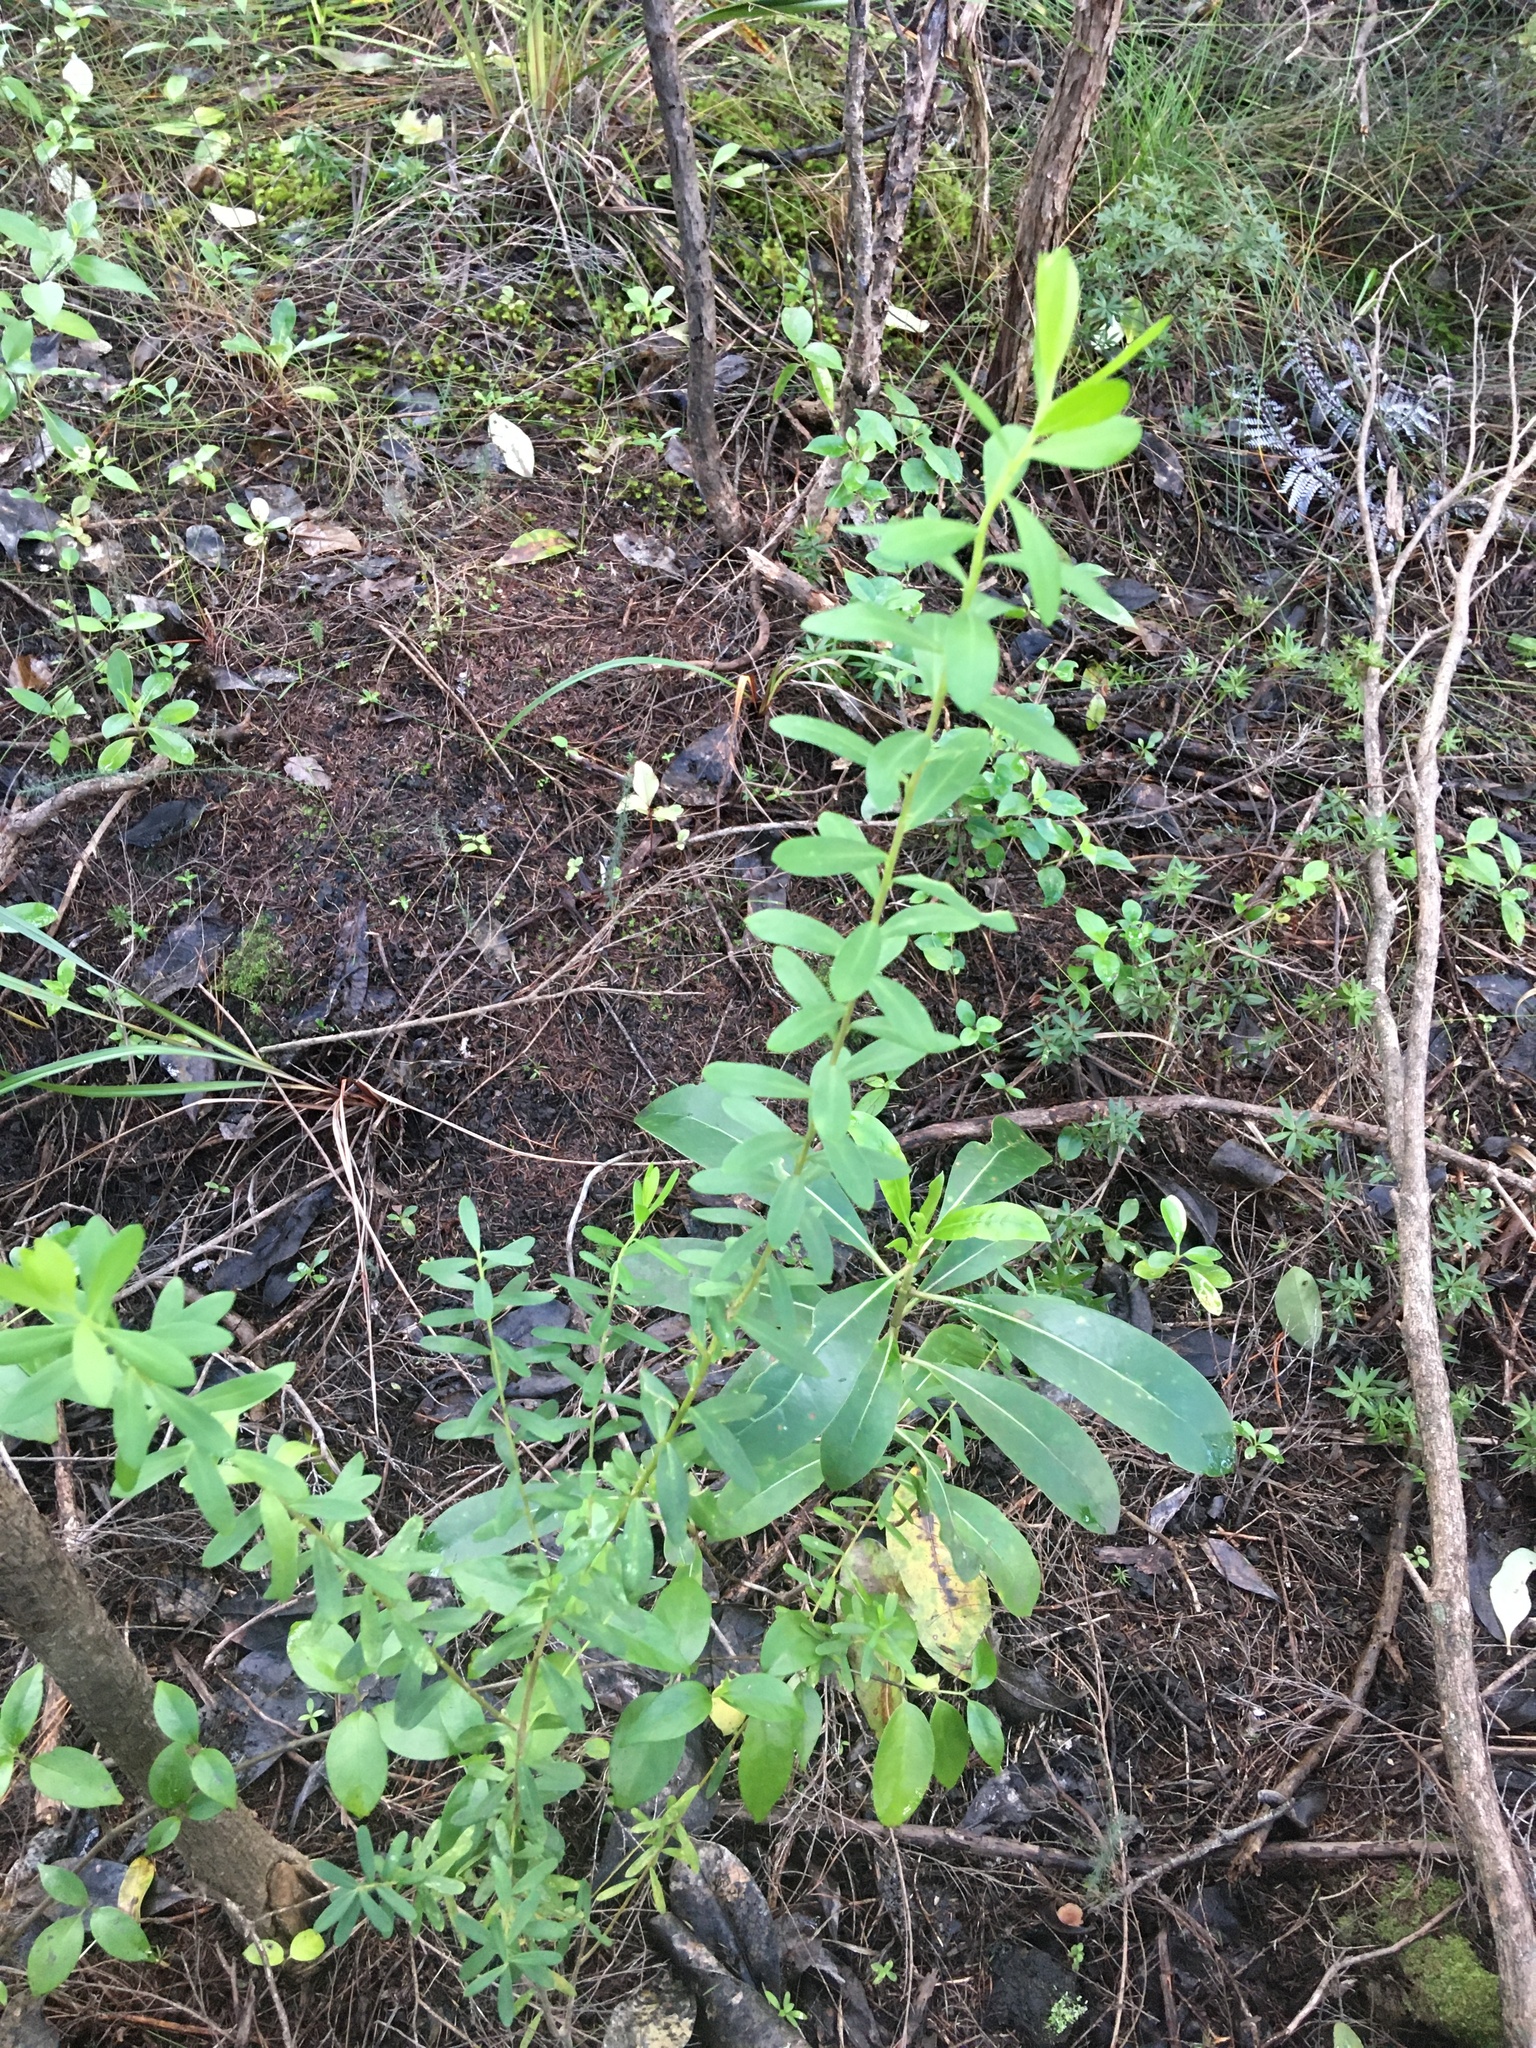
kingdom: Plantae
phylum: Tracheophyta
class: Magnoliopsida
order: Fabales
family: Polygalaceae
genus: Polygala
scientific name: Polygala myrtifolia
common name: Myrtle-leaf milkwort
